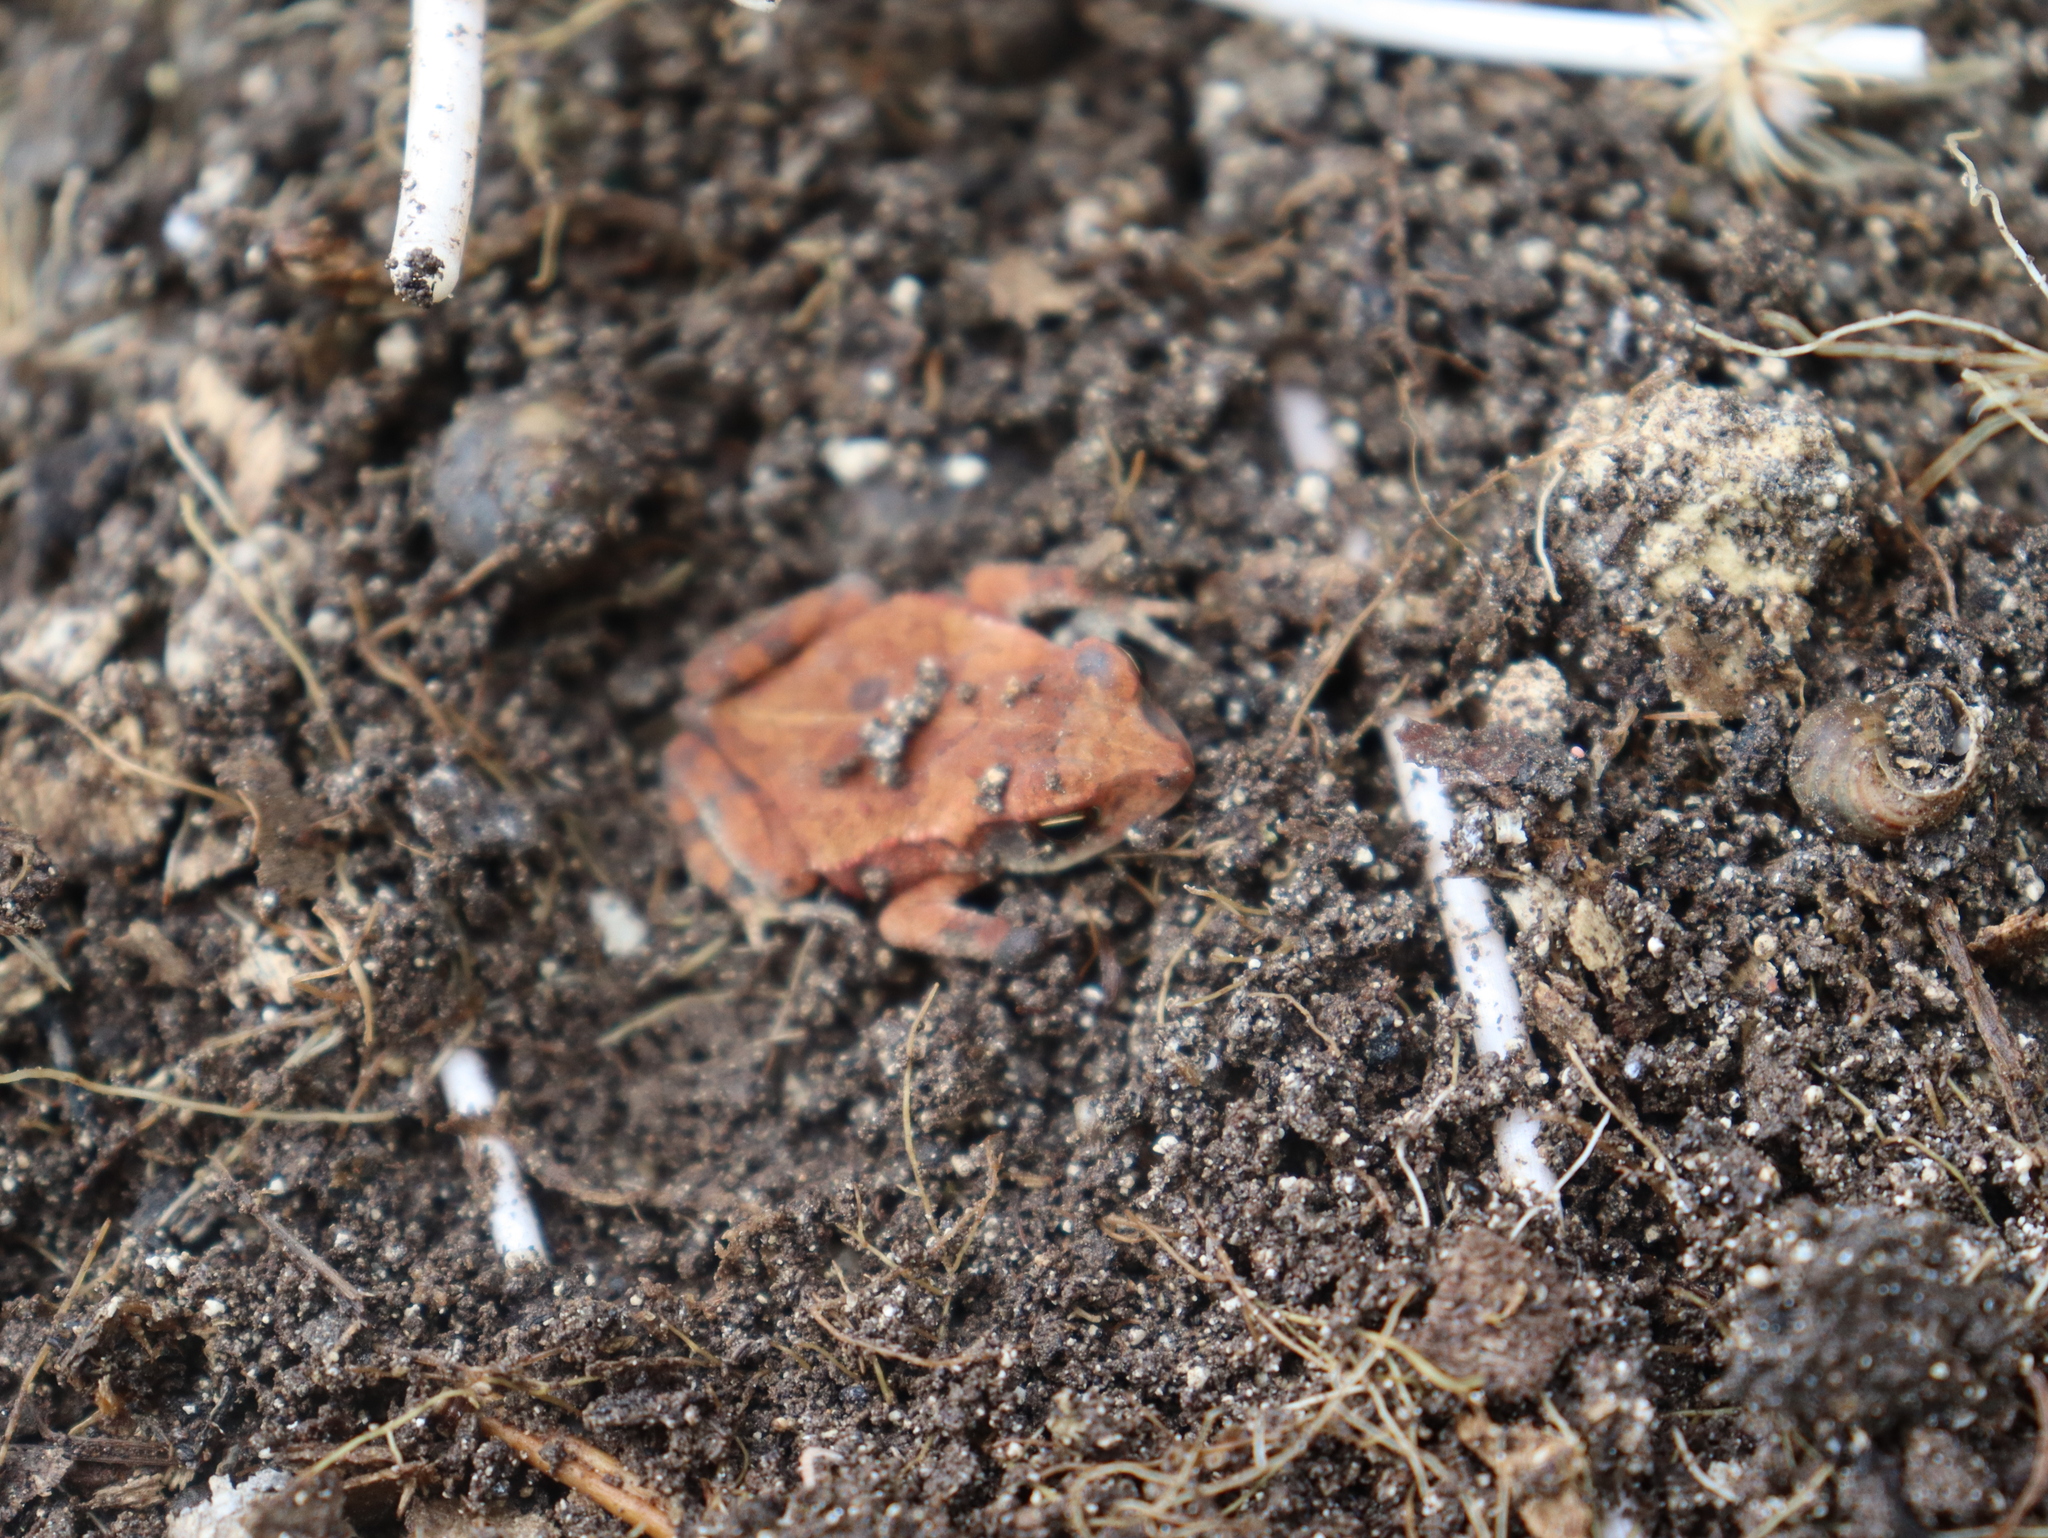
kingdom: Animalia
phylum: Chordata
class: Amphibia
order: Anura
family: Bufonidae
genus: Incilius
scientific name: Incilius valliceps
